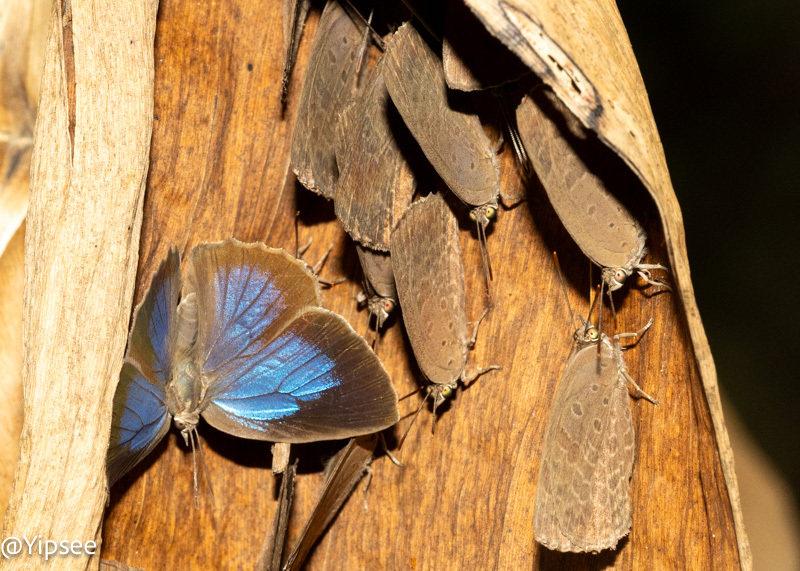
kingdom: Animalia
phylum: Arthropoda
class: Insecta
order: Lepidoptera
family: Lycaenidae
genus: Arhopala
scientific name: Arhopala asopia
